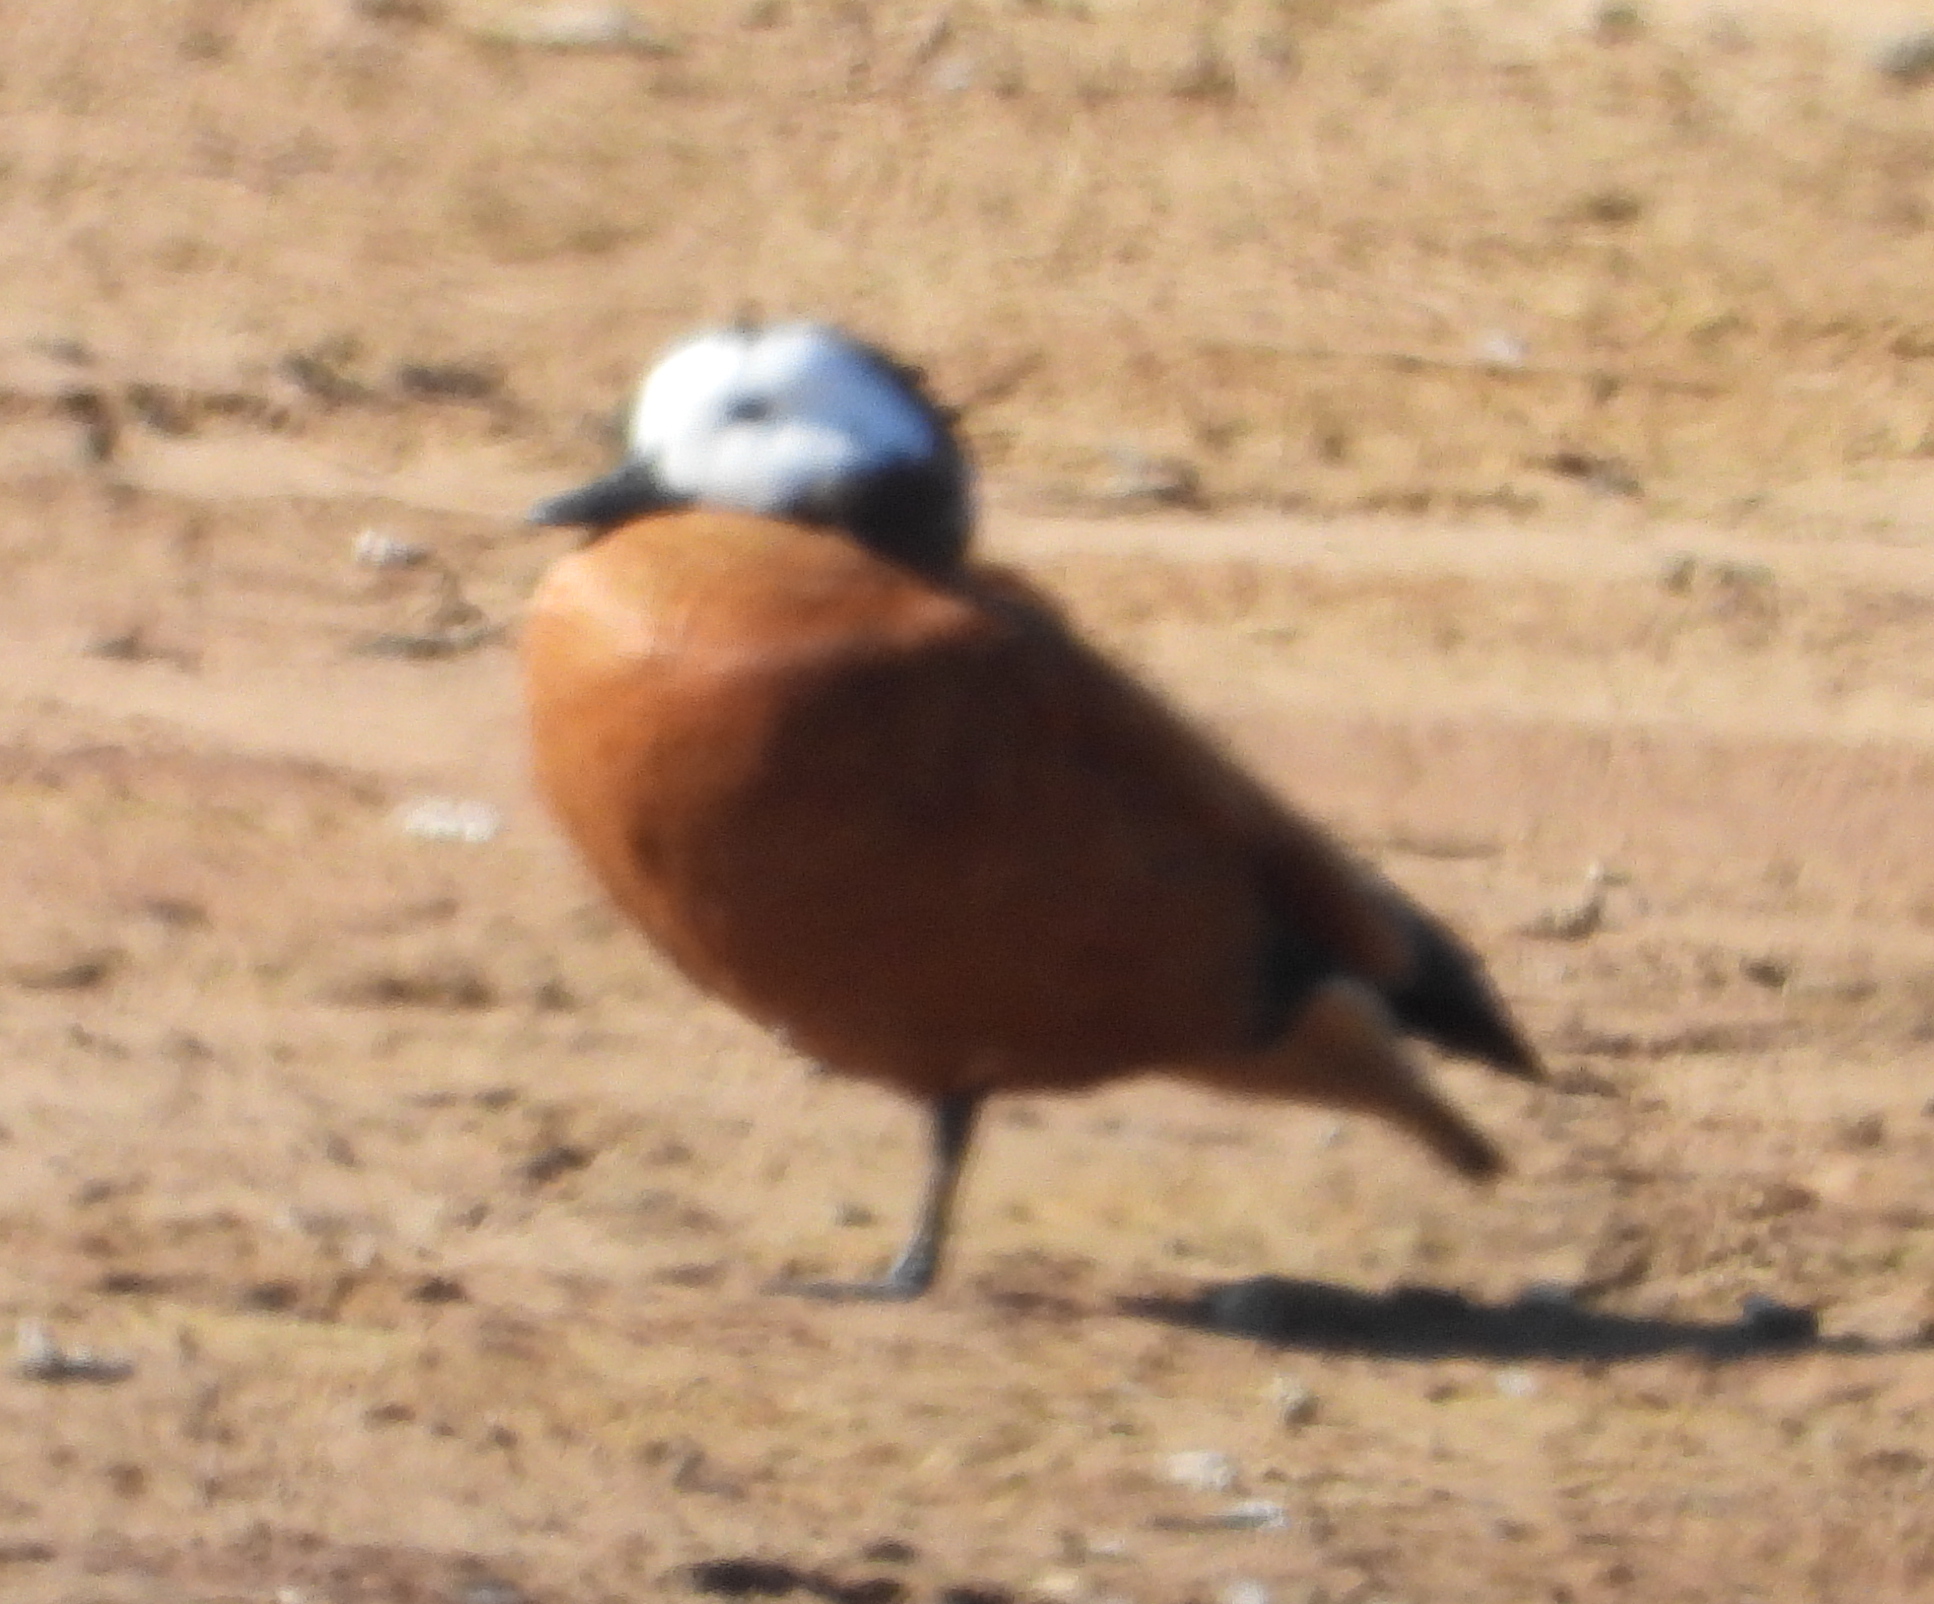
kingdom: Animalia
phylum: Chordata
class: Aves
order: Anseriformes
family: Anatidae
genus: Tadorna
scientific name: Tadorna cana
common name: South african shelduck
